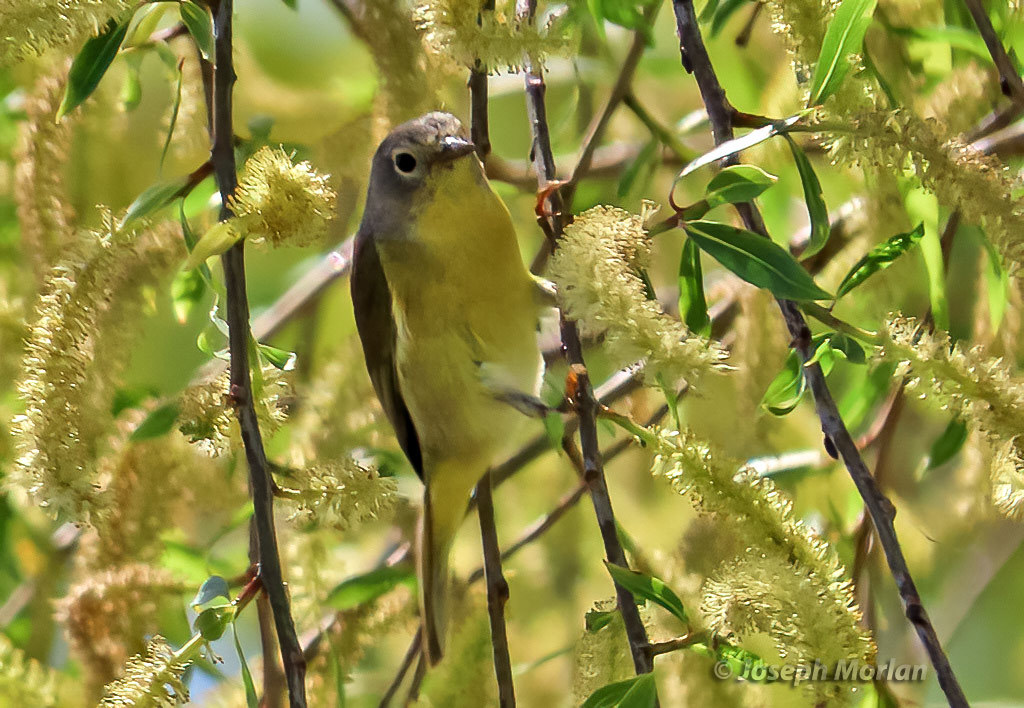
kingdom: Animalia
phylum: Chordata
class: Aves
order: Passeriformes
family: Parulidae
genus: Leiothlypis
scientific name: Leiothlypis ruficapilla
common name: Nashville warbler
